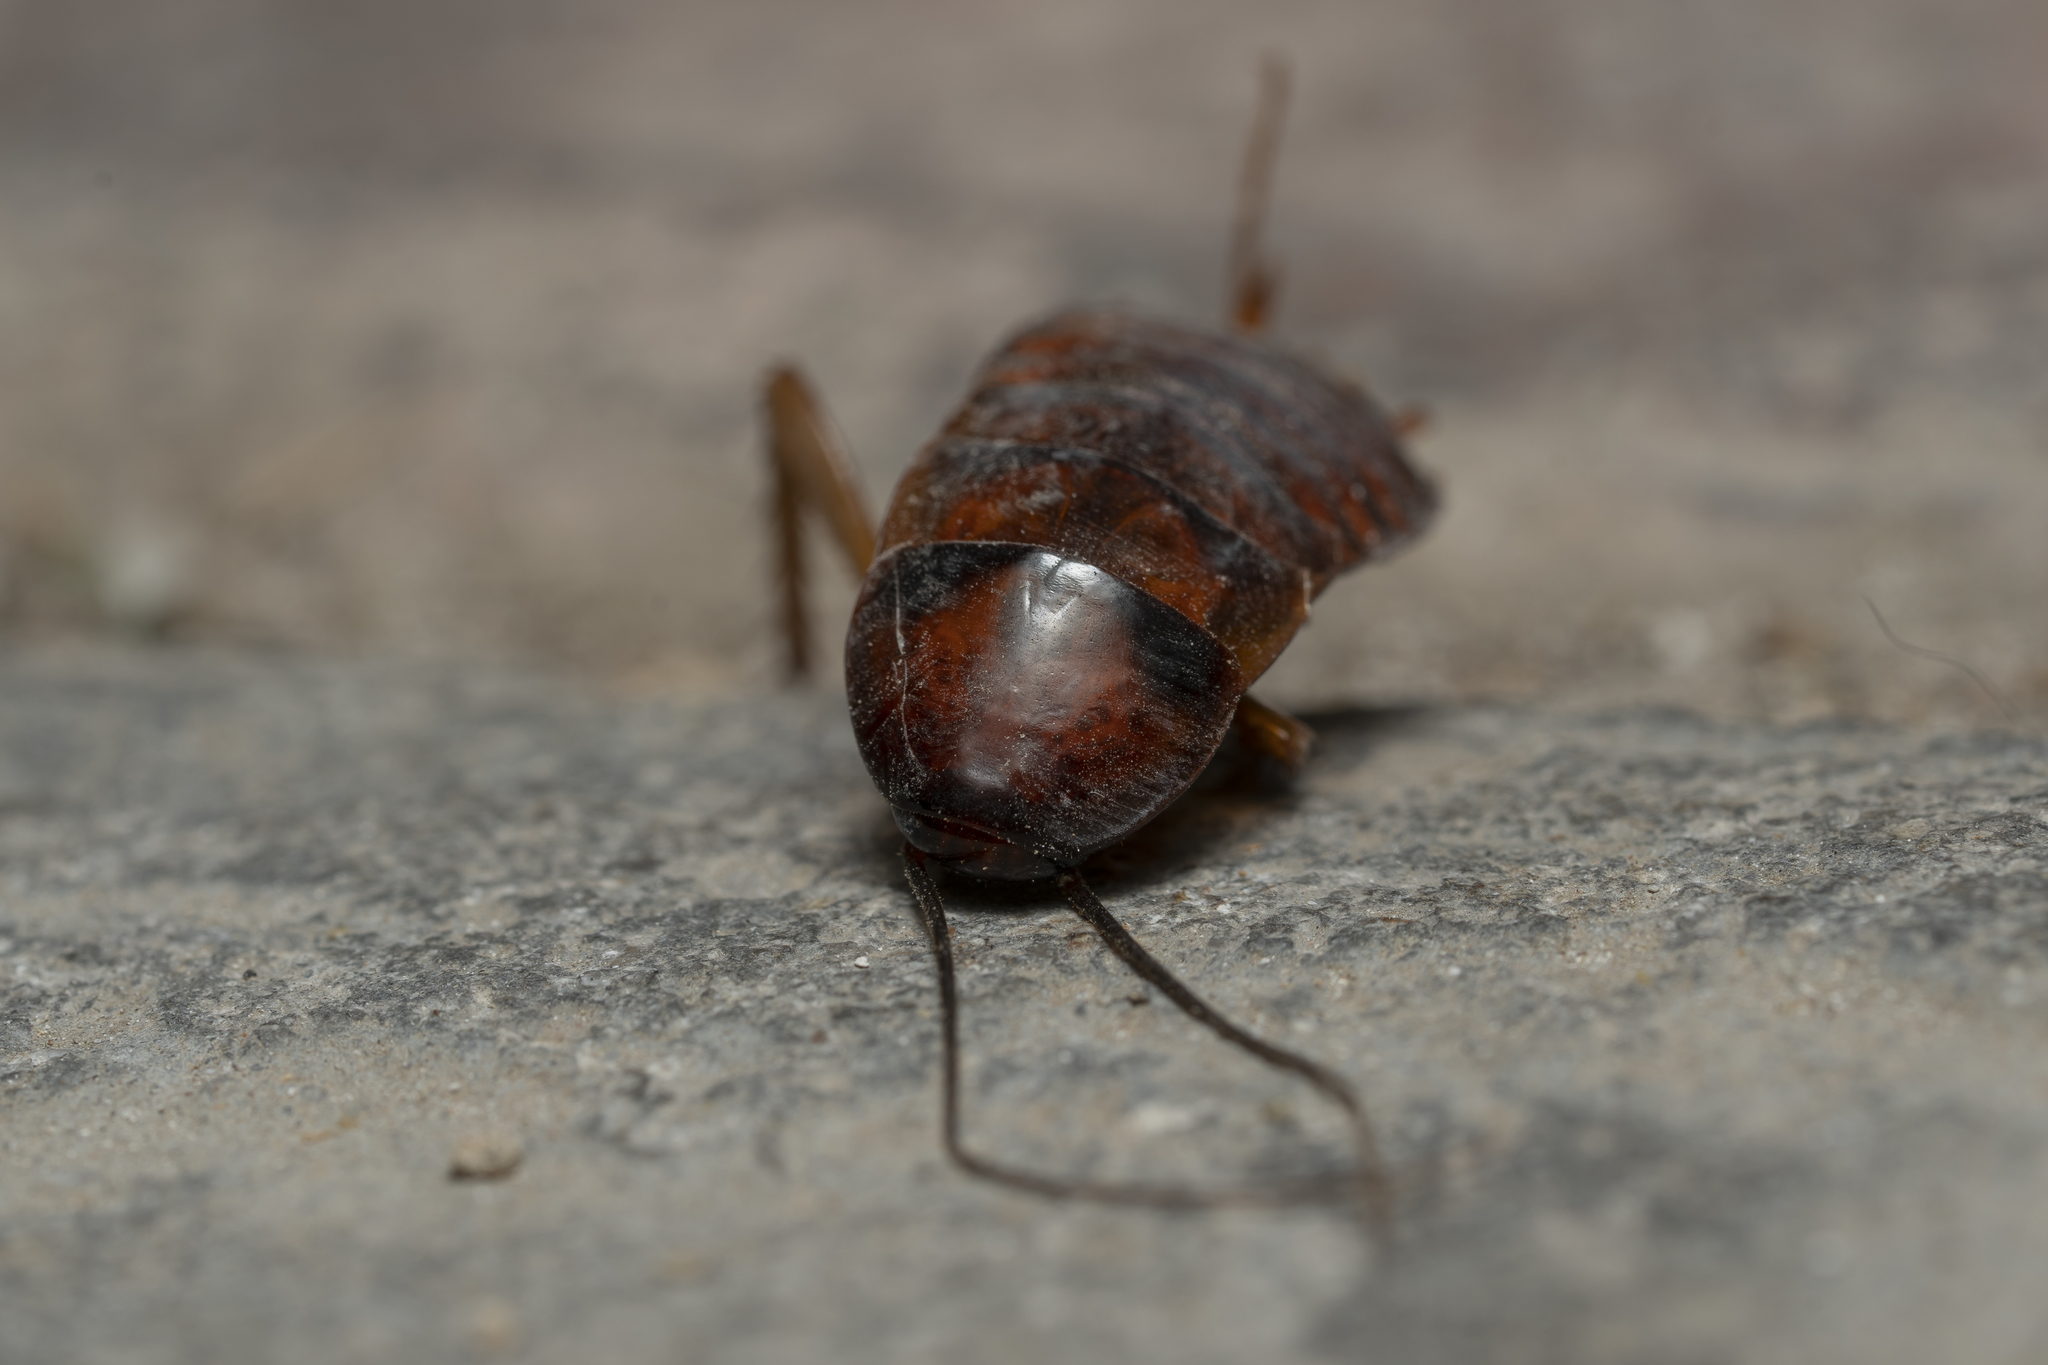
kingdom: Animalia
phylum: Arthropoda
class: Insecta
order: Blattodea
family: Blattidae
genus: Periplaneta
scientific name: Periplaneta americana
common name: American cockroach
